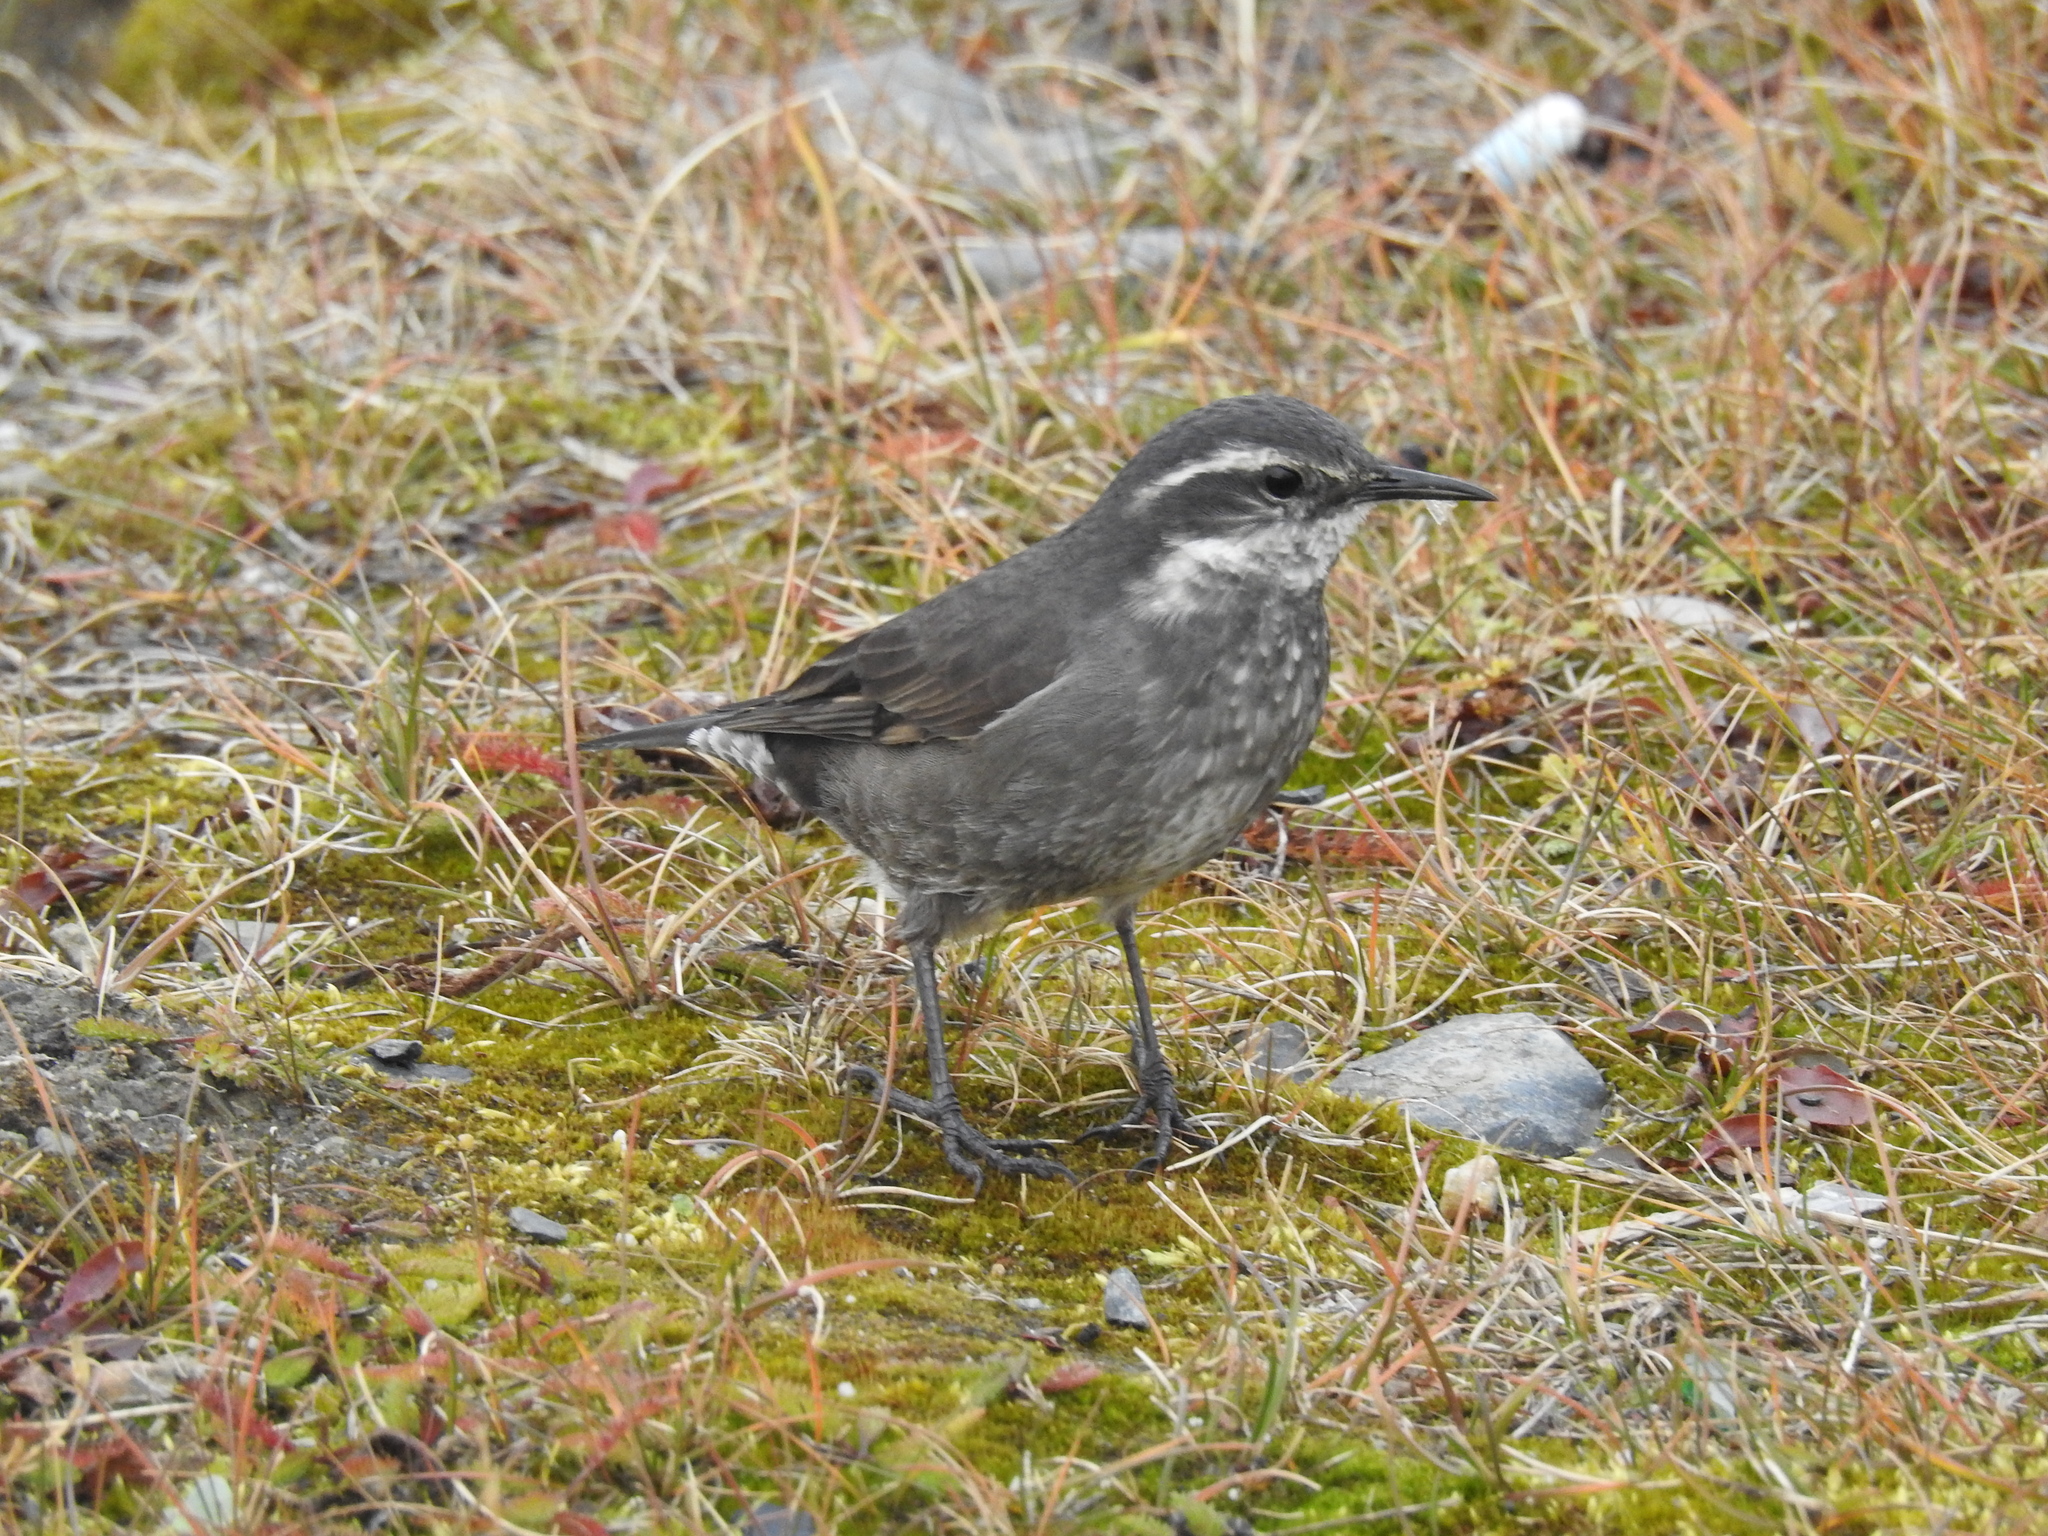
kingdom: Animalia
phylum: Chordata
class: Aves
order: Passeriformes
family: Furnariidae
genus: Cinclodes
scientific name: Cinclodes oustaleti
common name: Grey-flanked cinclodes
